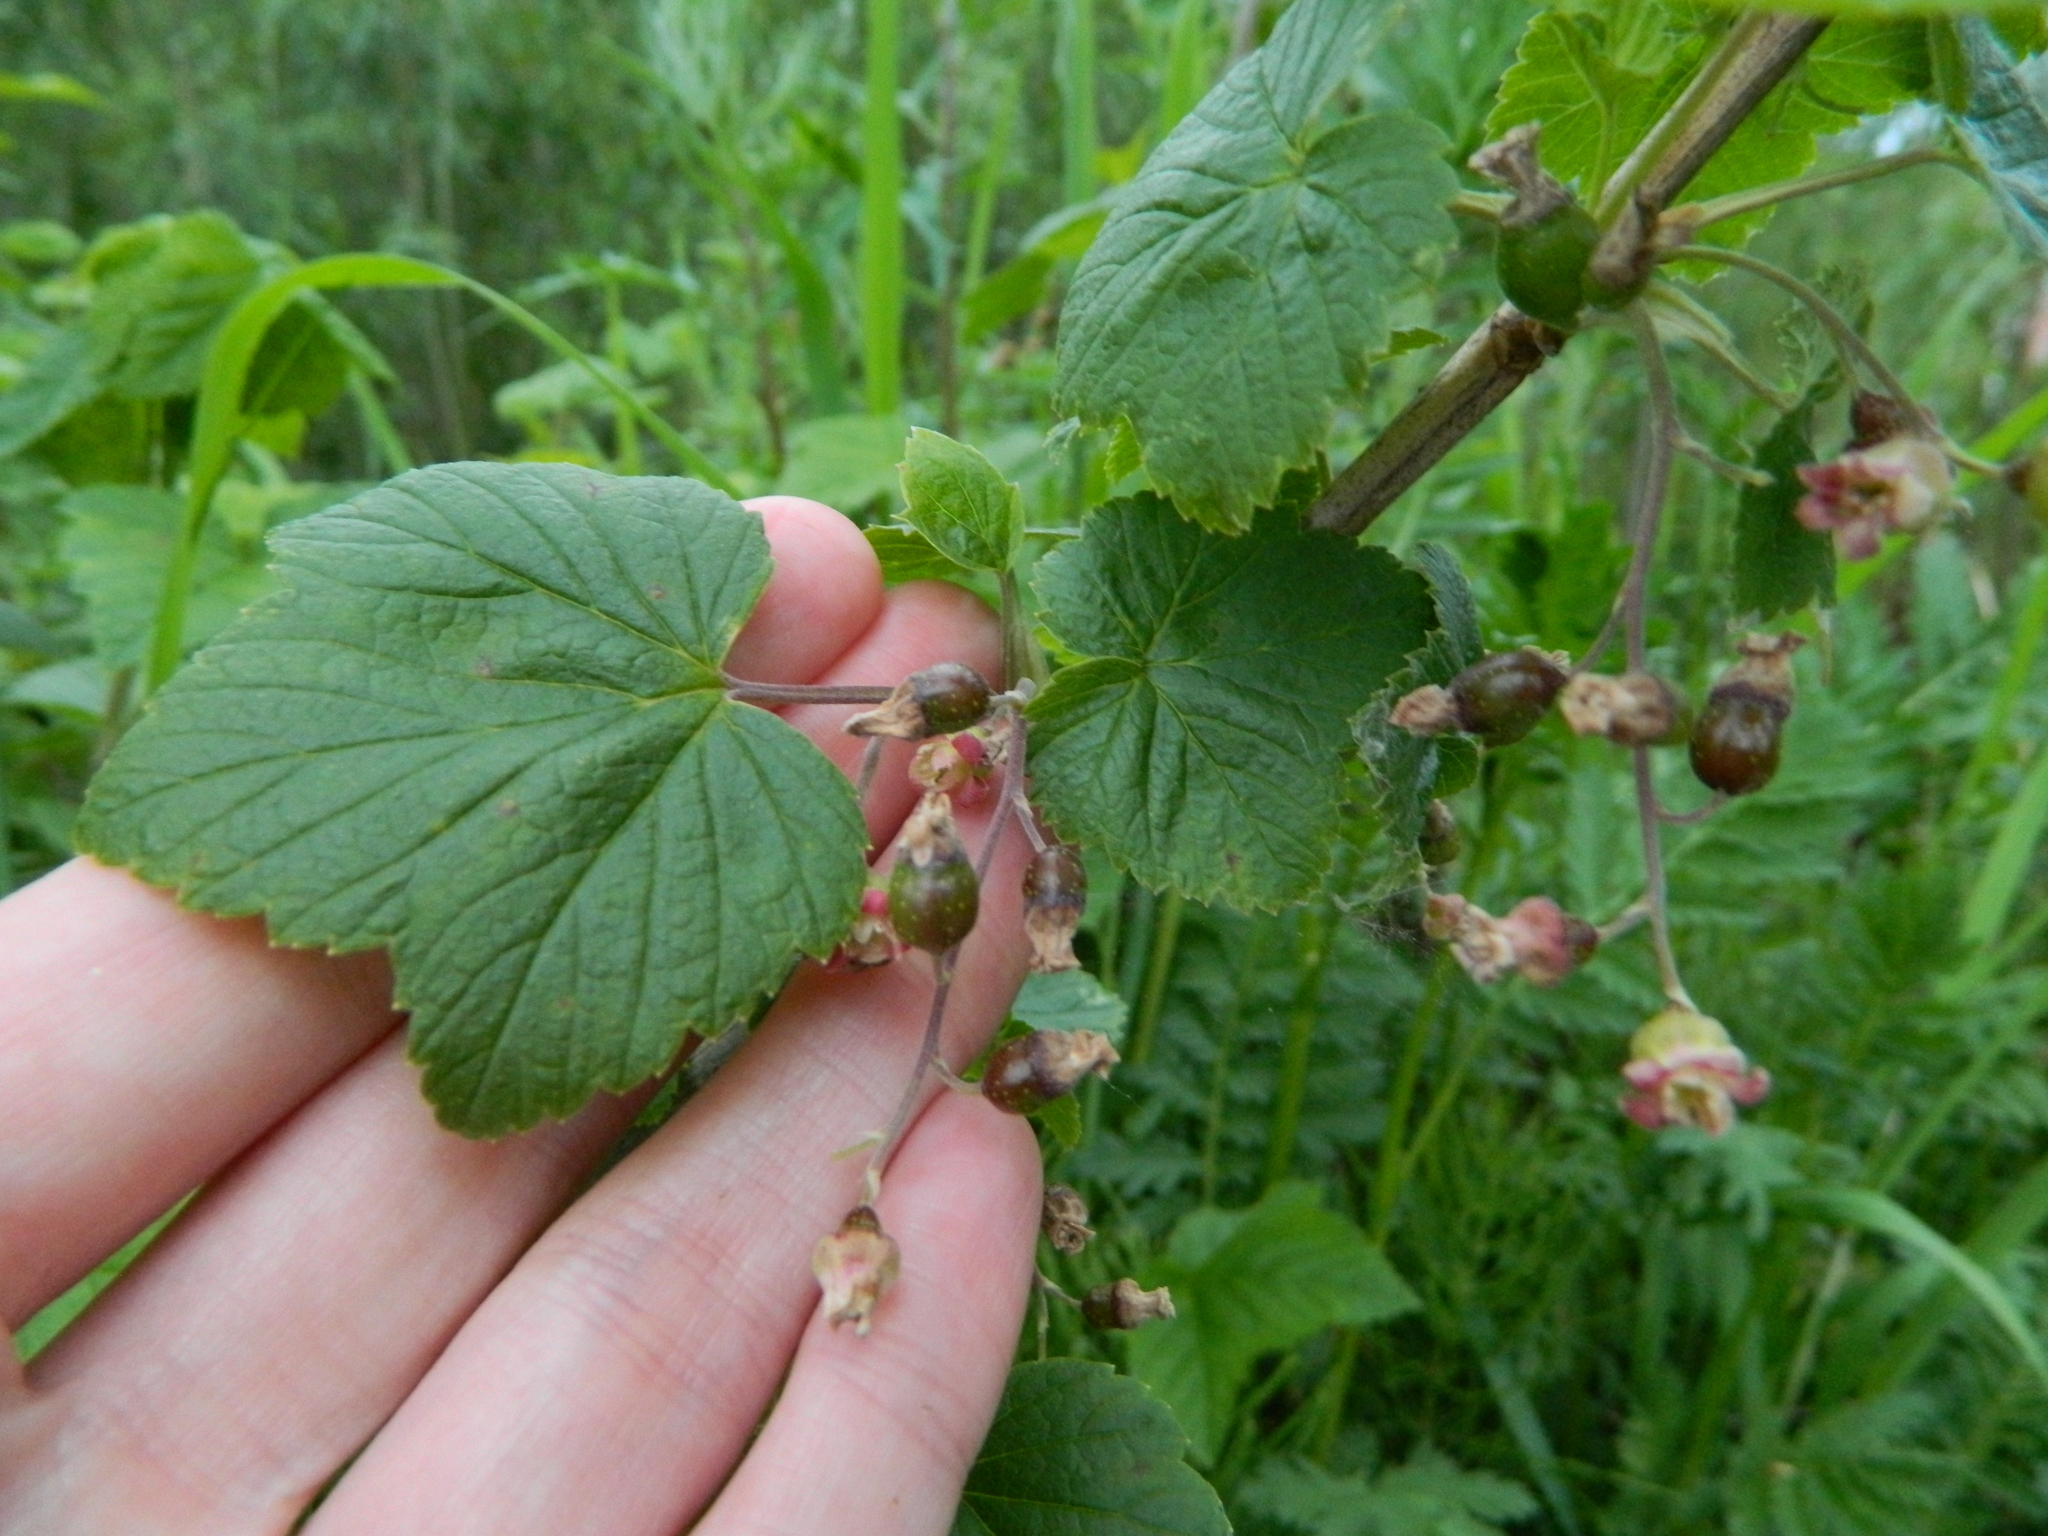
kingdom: Plantae
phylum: Tracheophyta
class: Magnoliopsida
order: Saxifragales
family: Grossulariaceae
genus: Ribes
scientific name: Ribes nigrum
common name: Black currant
